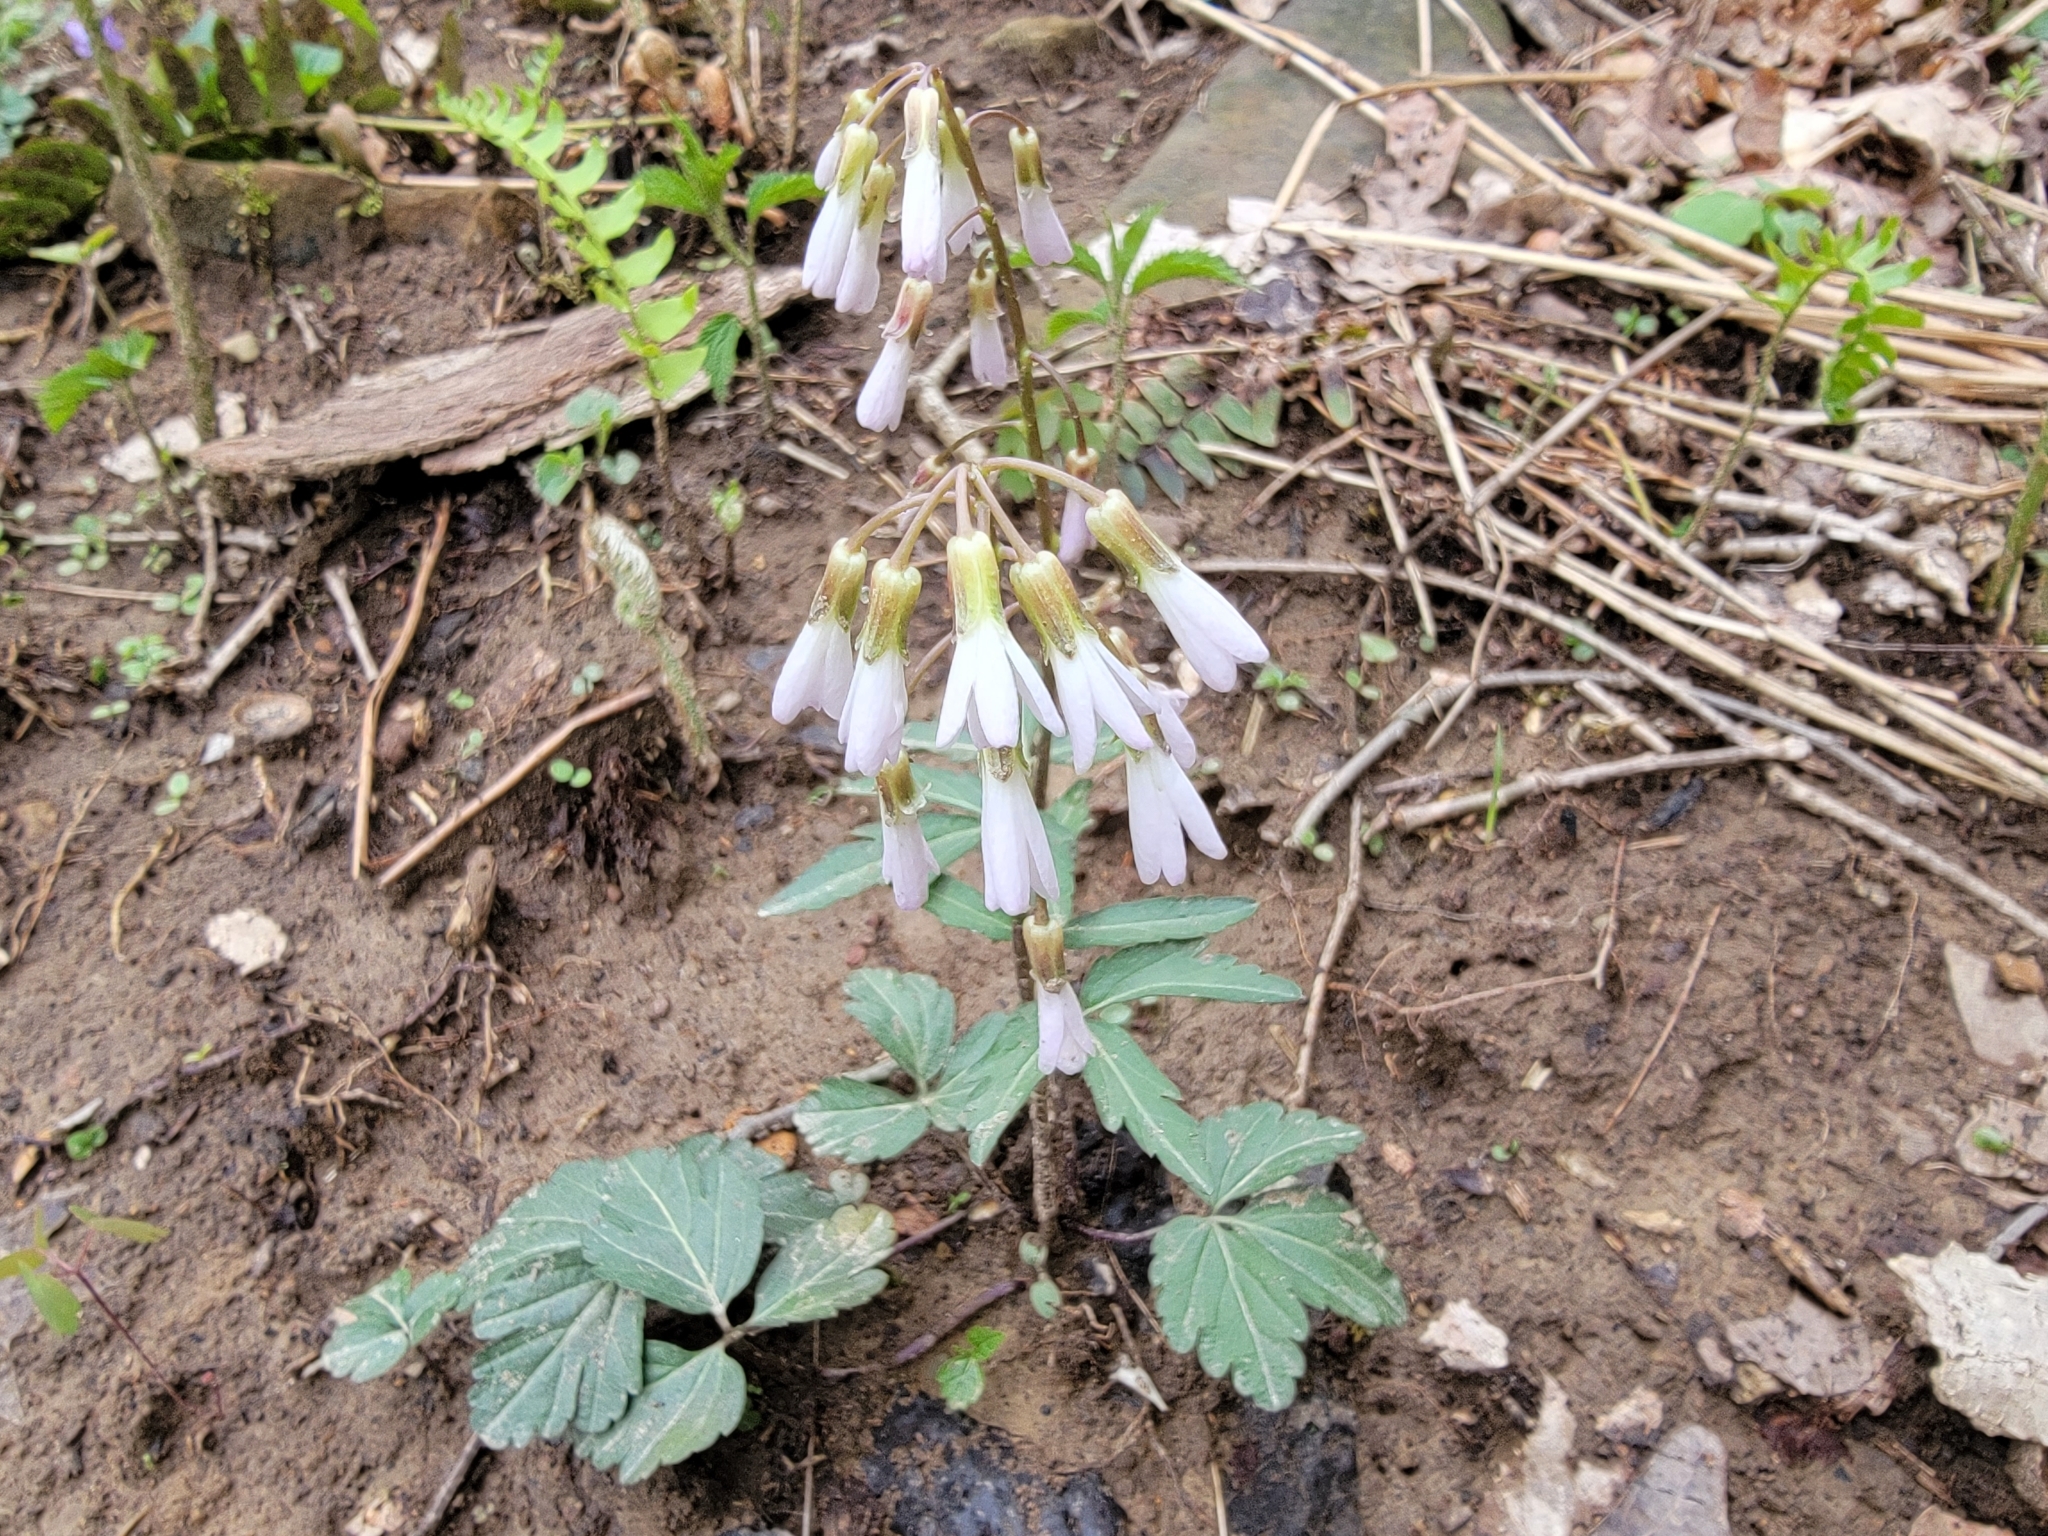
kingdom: Plantae
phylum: Tracheophyta
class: Magnoliopsida
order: Brassicales
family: Brassicaceae
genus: Cardamine
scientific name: Cardamine angustata
